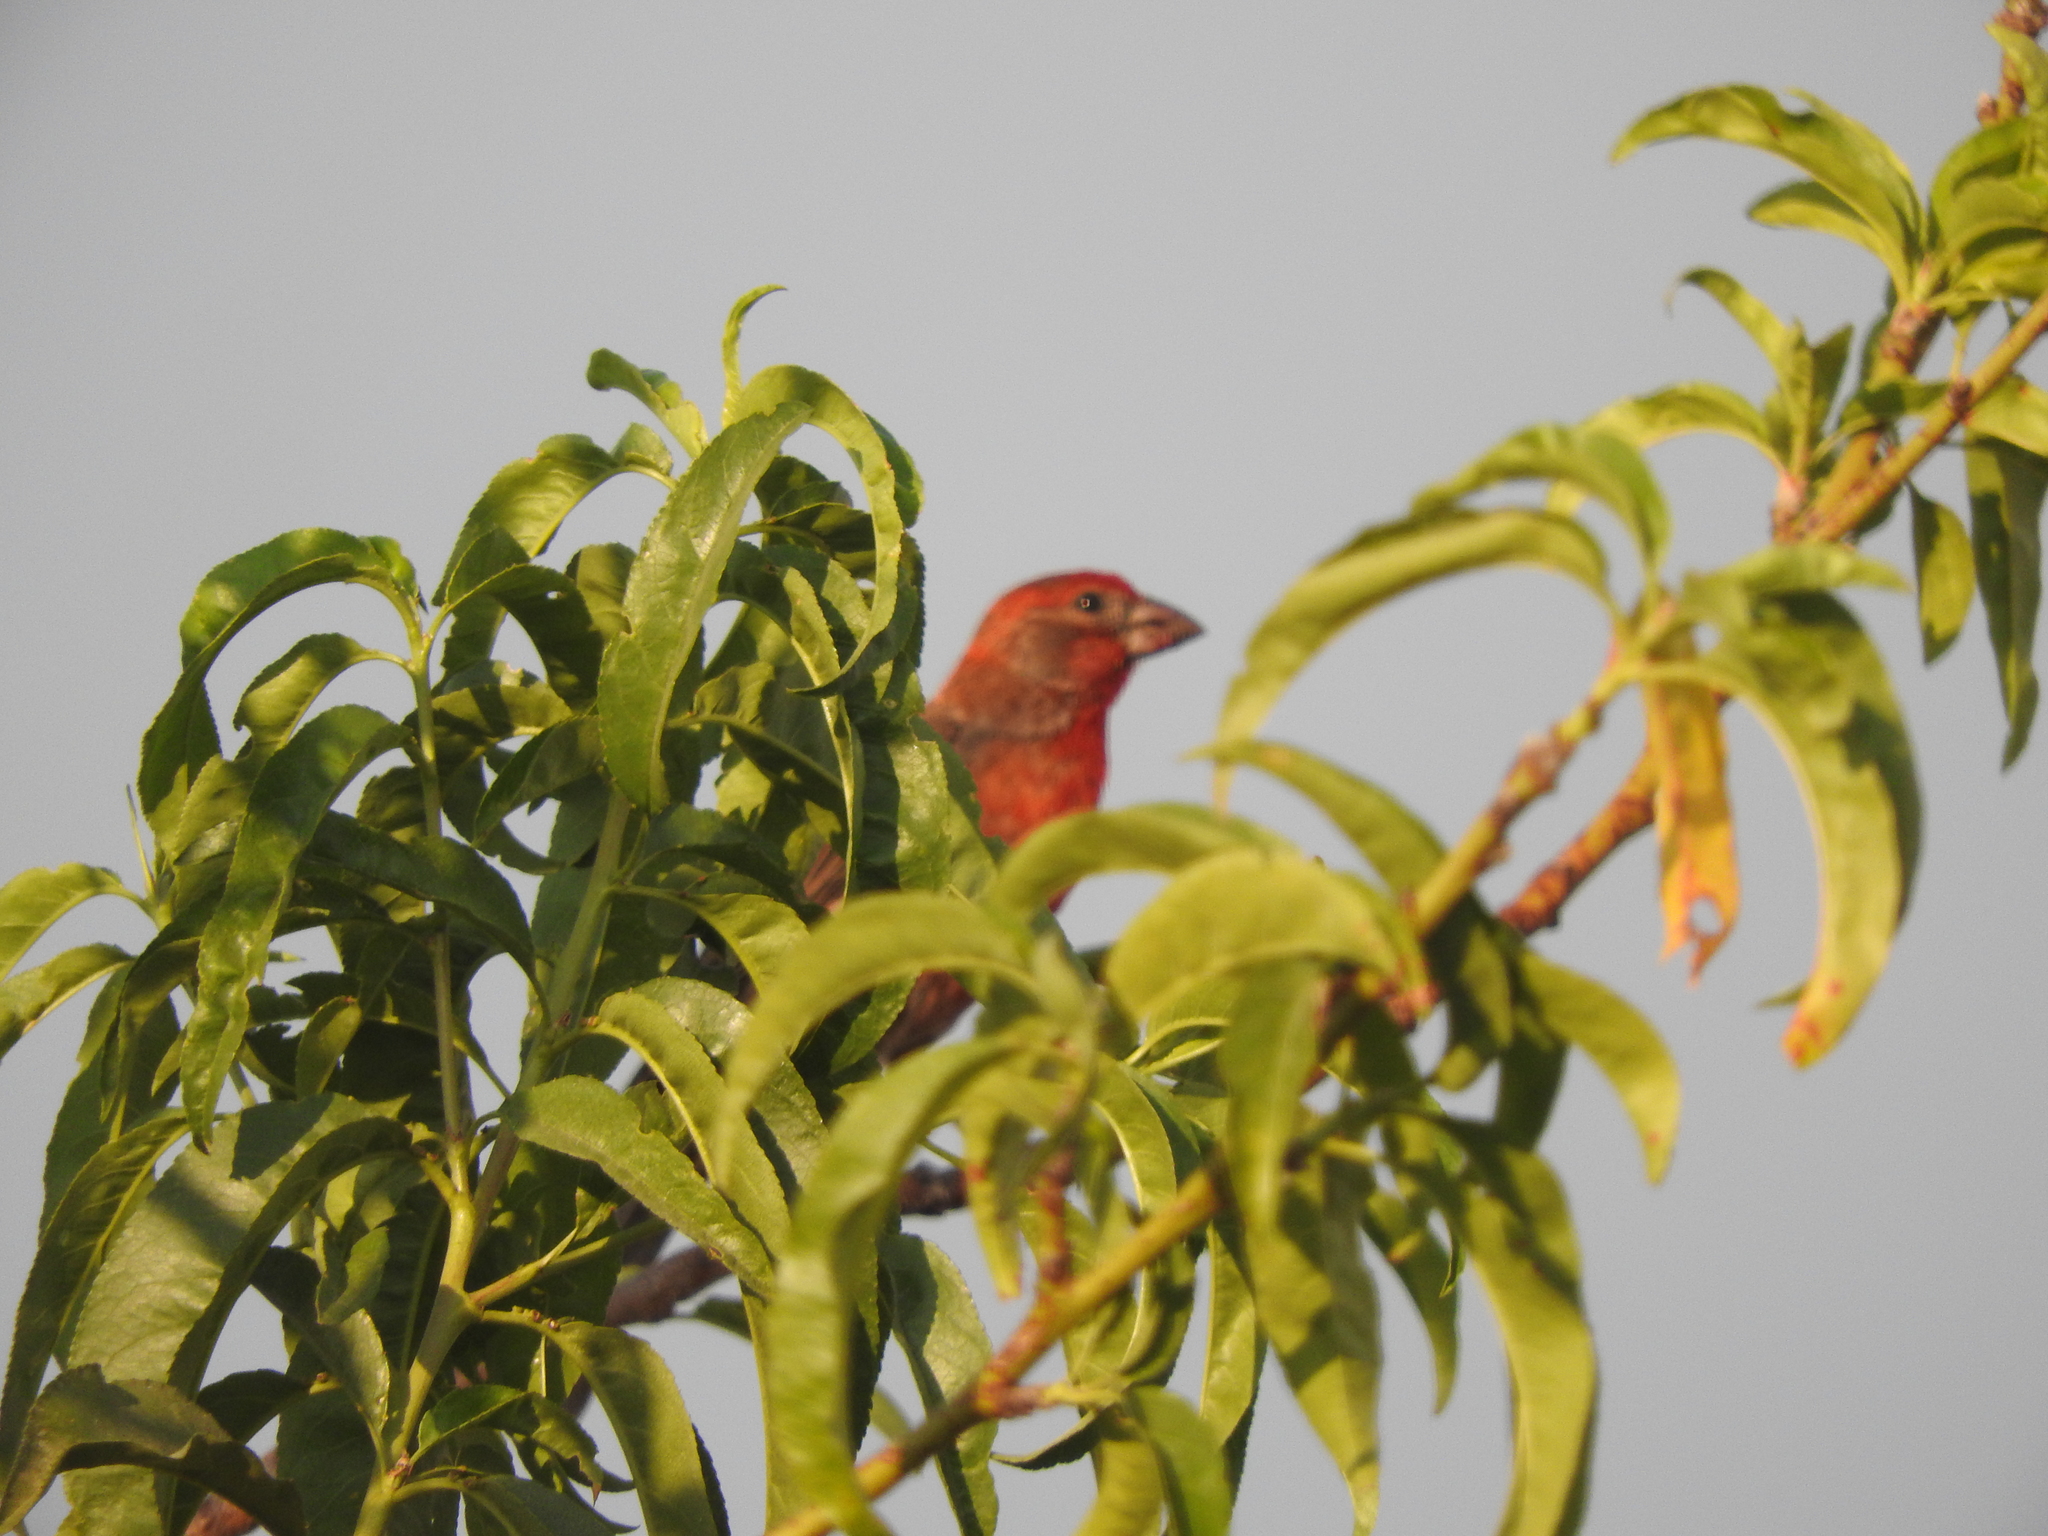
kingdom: Animalia
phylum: Chordata
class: Aves
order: Passeriformes
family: Fringillidae
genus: Haemorhous
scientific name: Haemorhous mexicanus
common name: House finch
